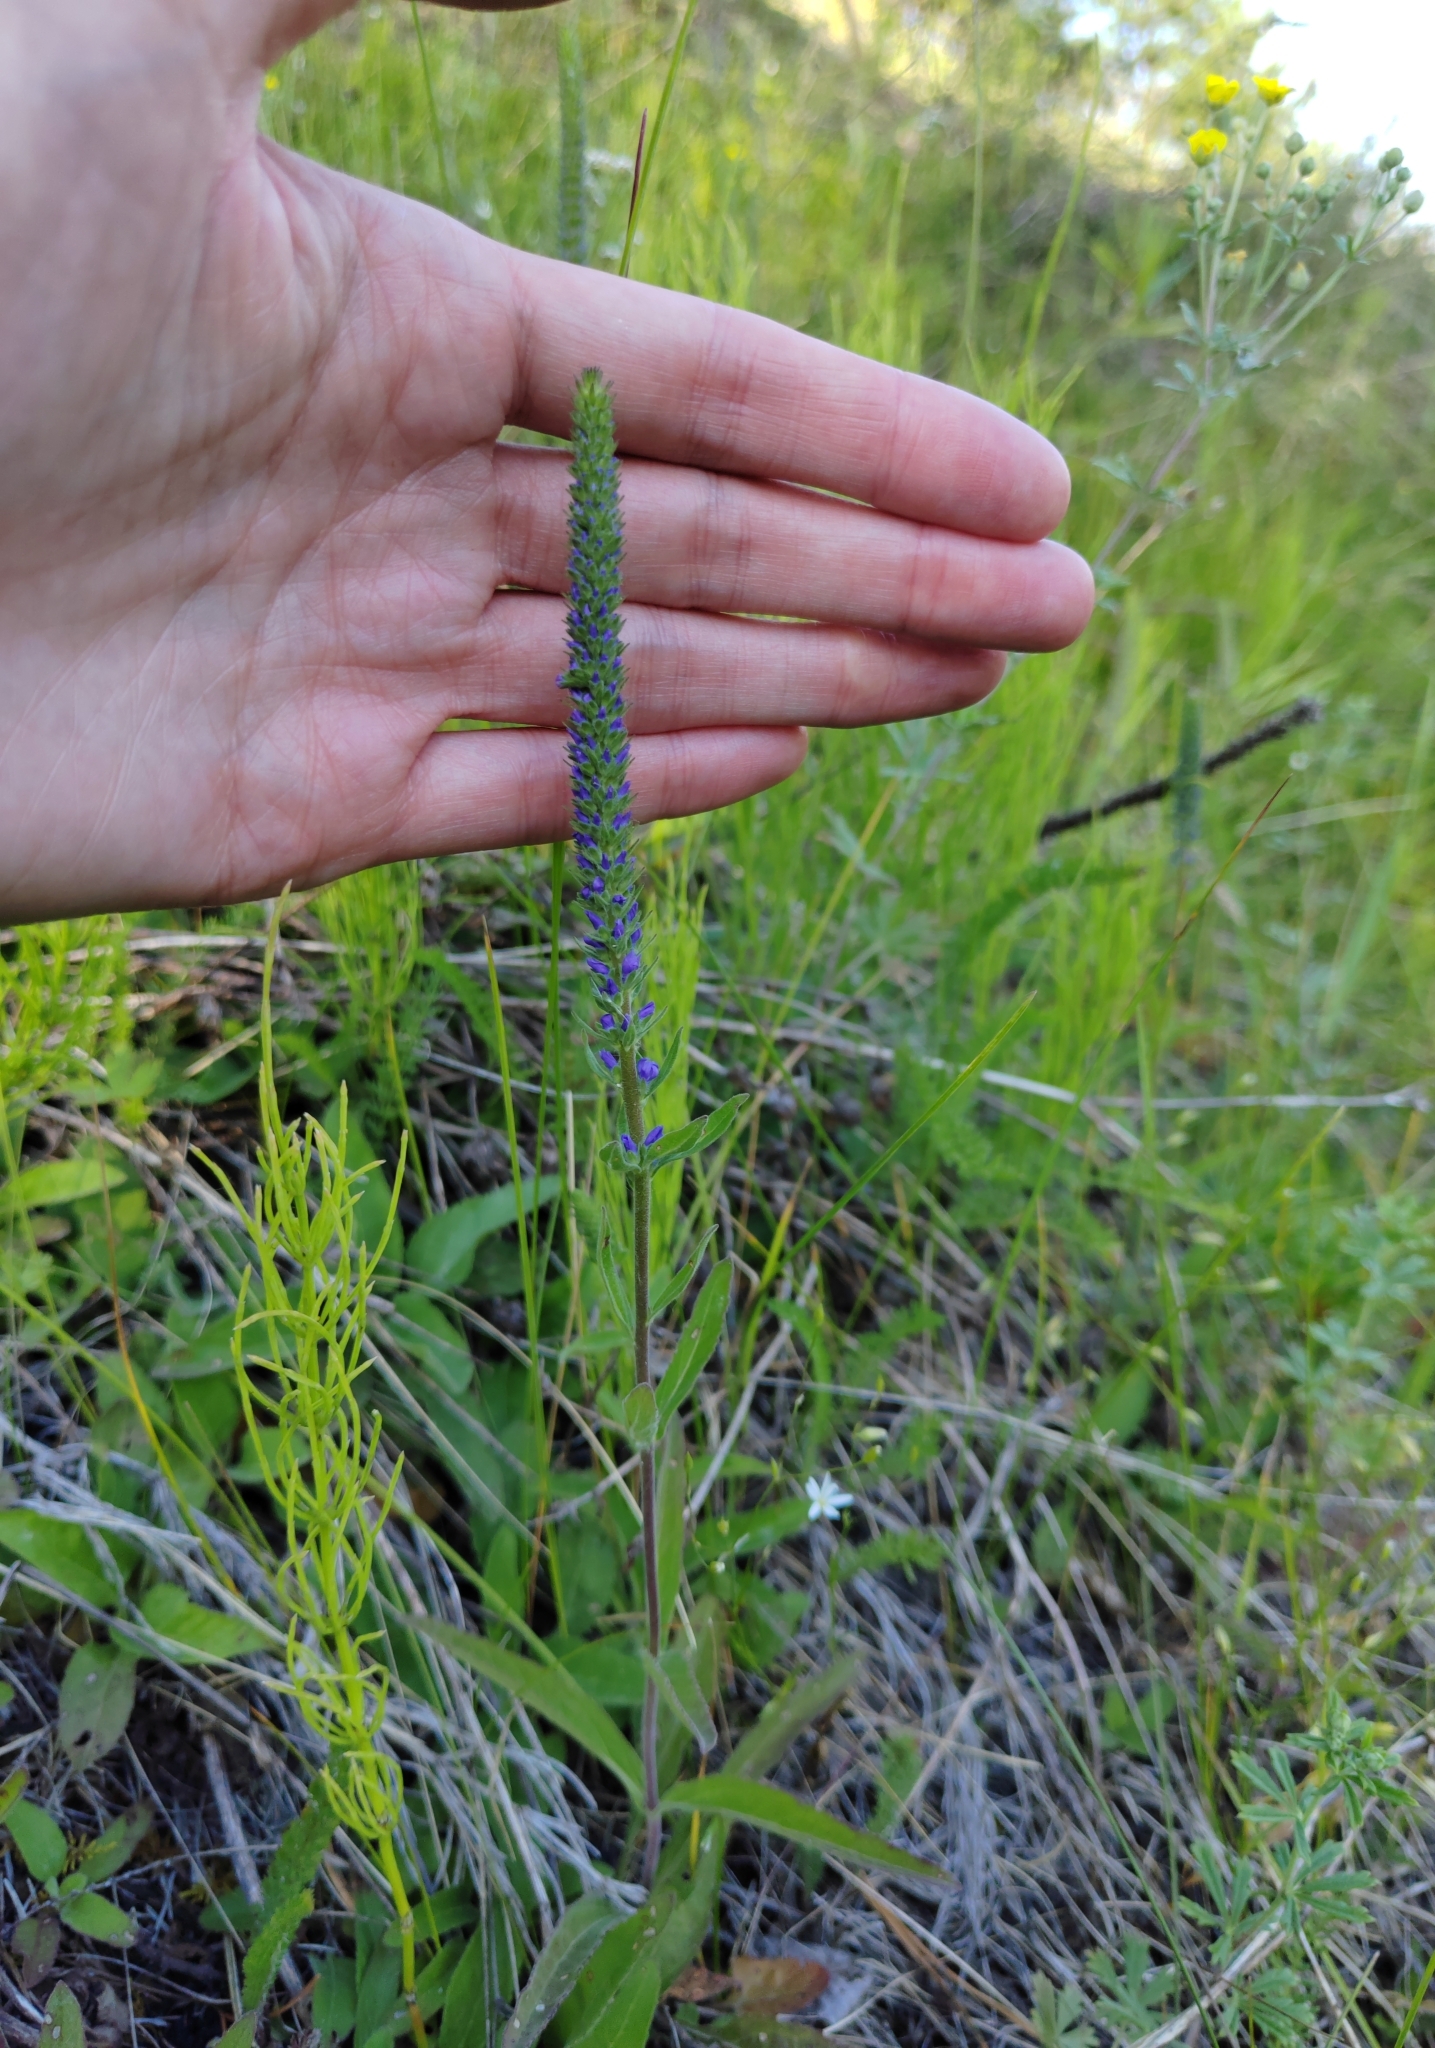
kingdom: Plantae
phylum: Tracheophyta
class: Magnoliopsida
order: Lamiales
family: Plantaginaceae
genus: Veronica
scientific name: Veronica spicata
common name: Spiked speedwell
